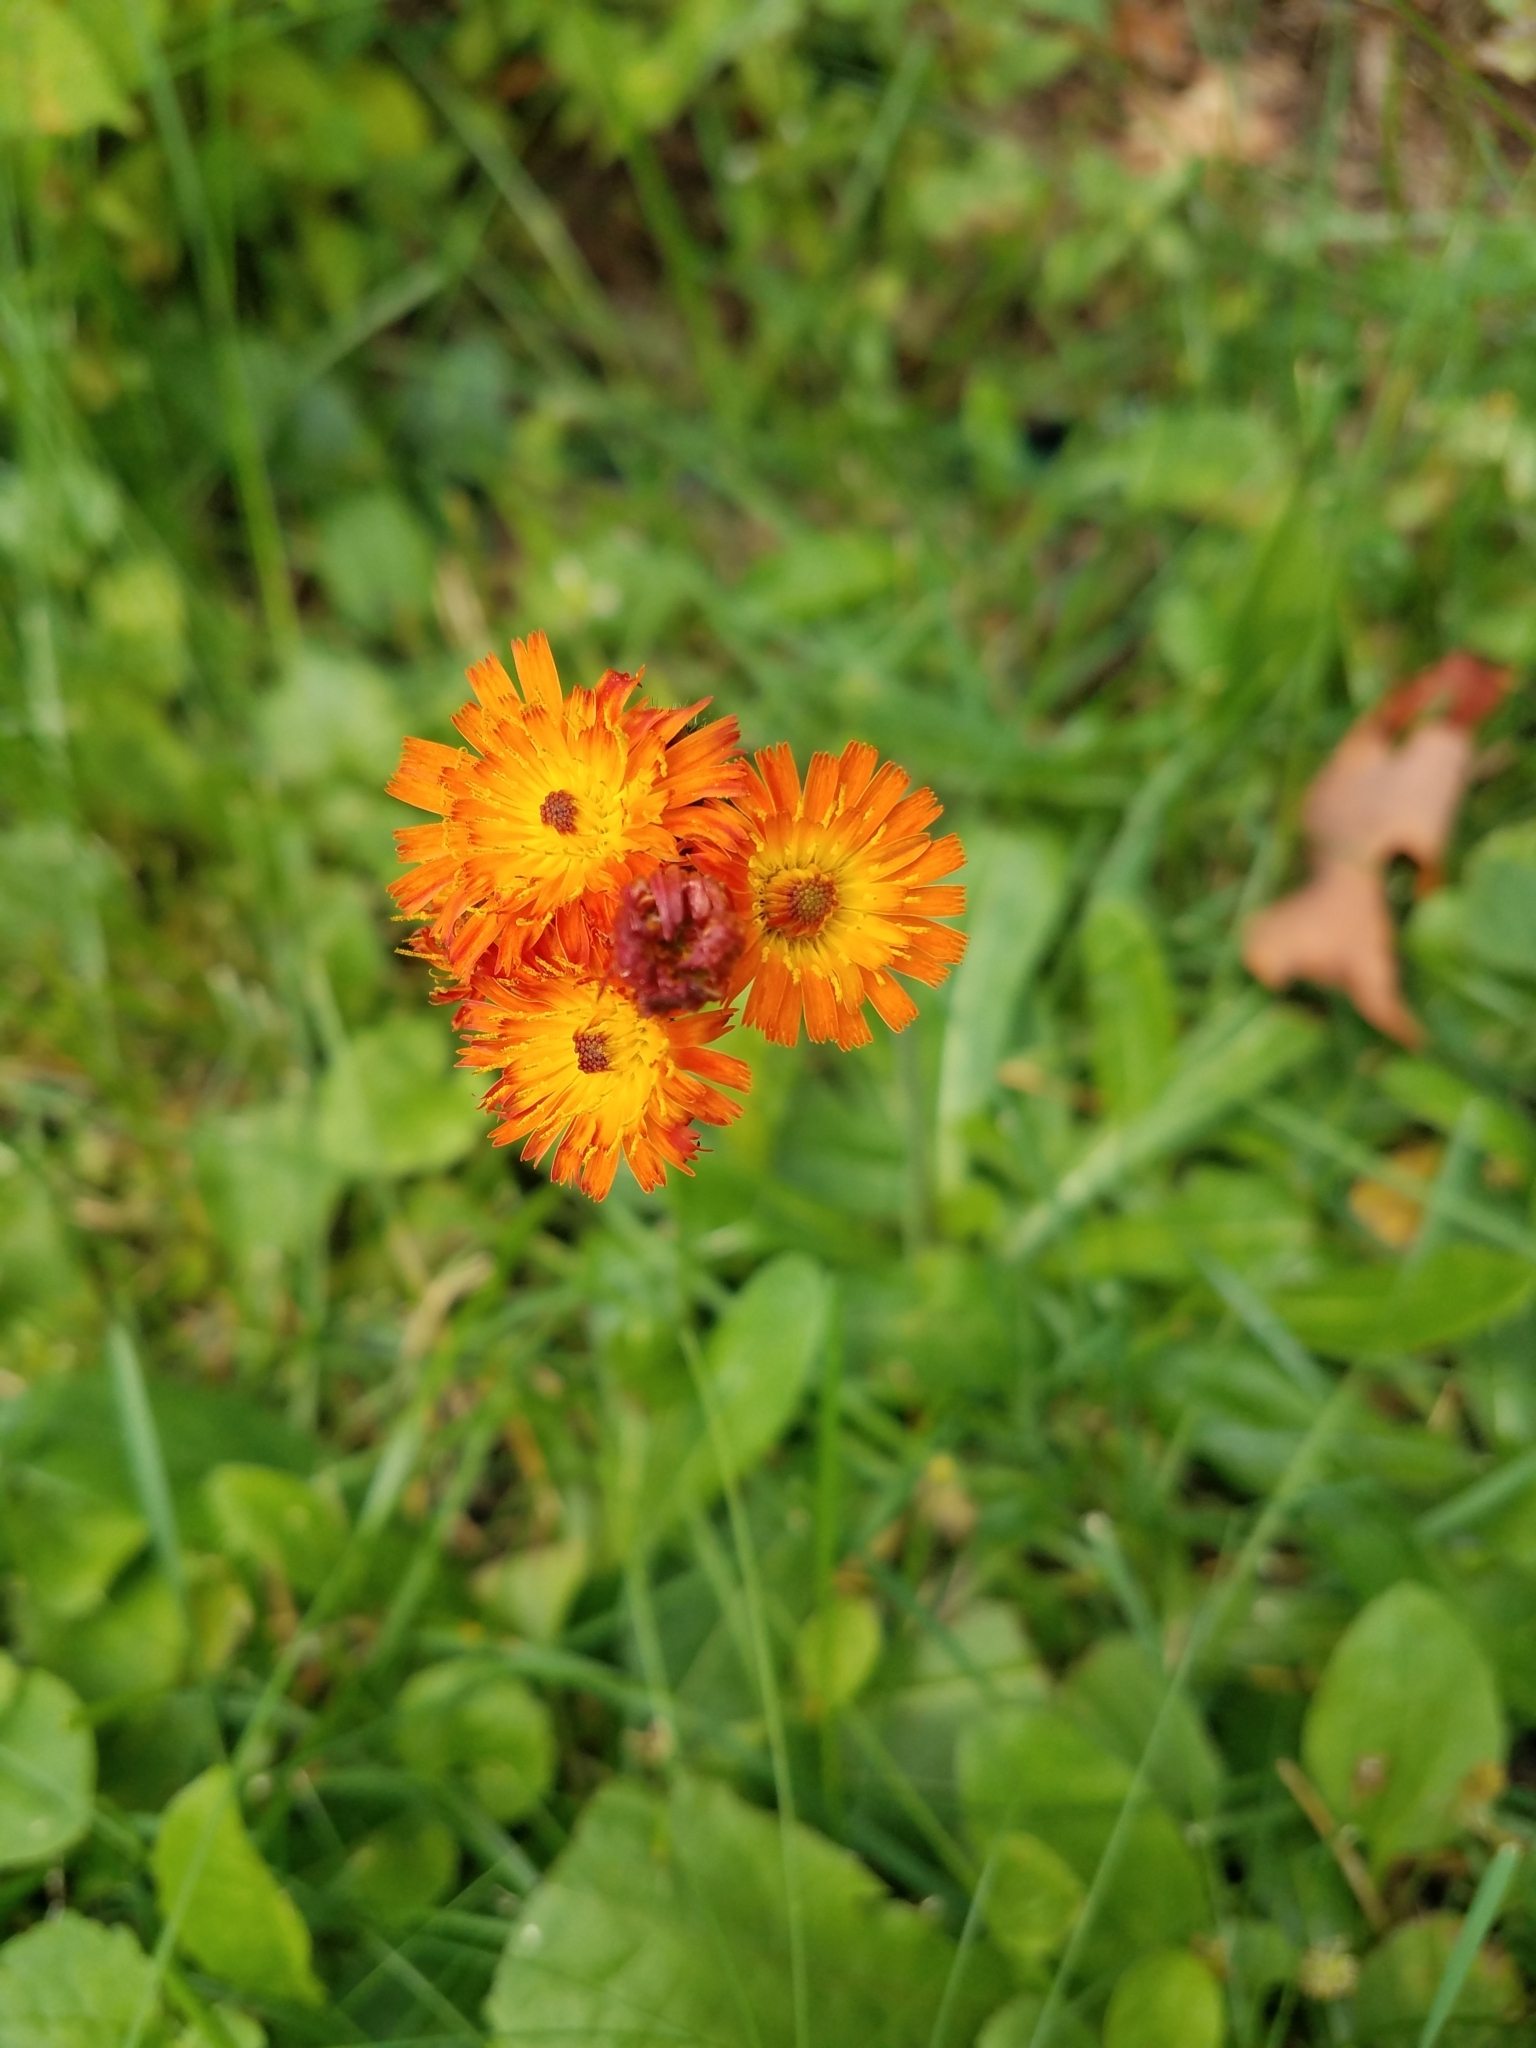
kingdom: Plantae
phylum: Tracheophyta
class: Magnoliopsida
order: Asterales
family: Asteraceae
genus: Pilosella
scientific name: Pilosella aurantiaca
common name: Fox-and-cubs
